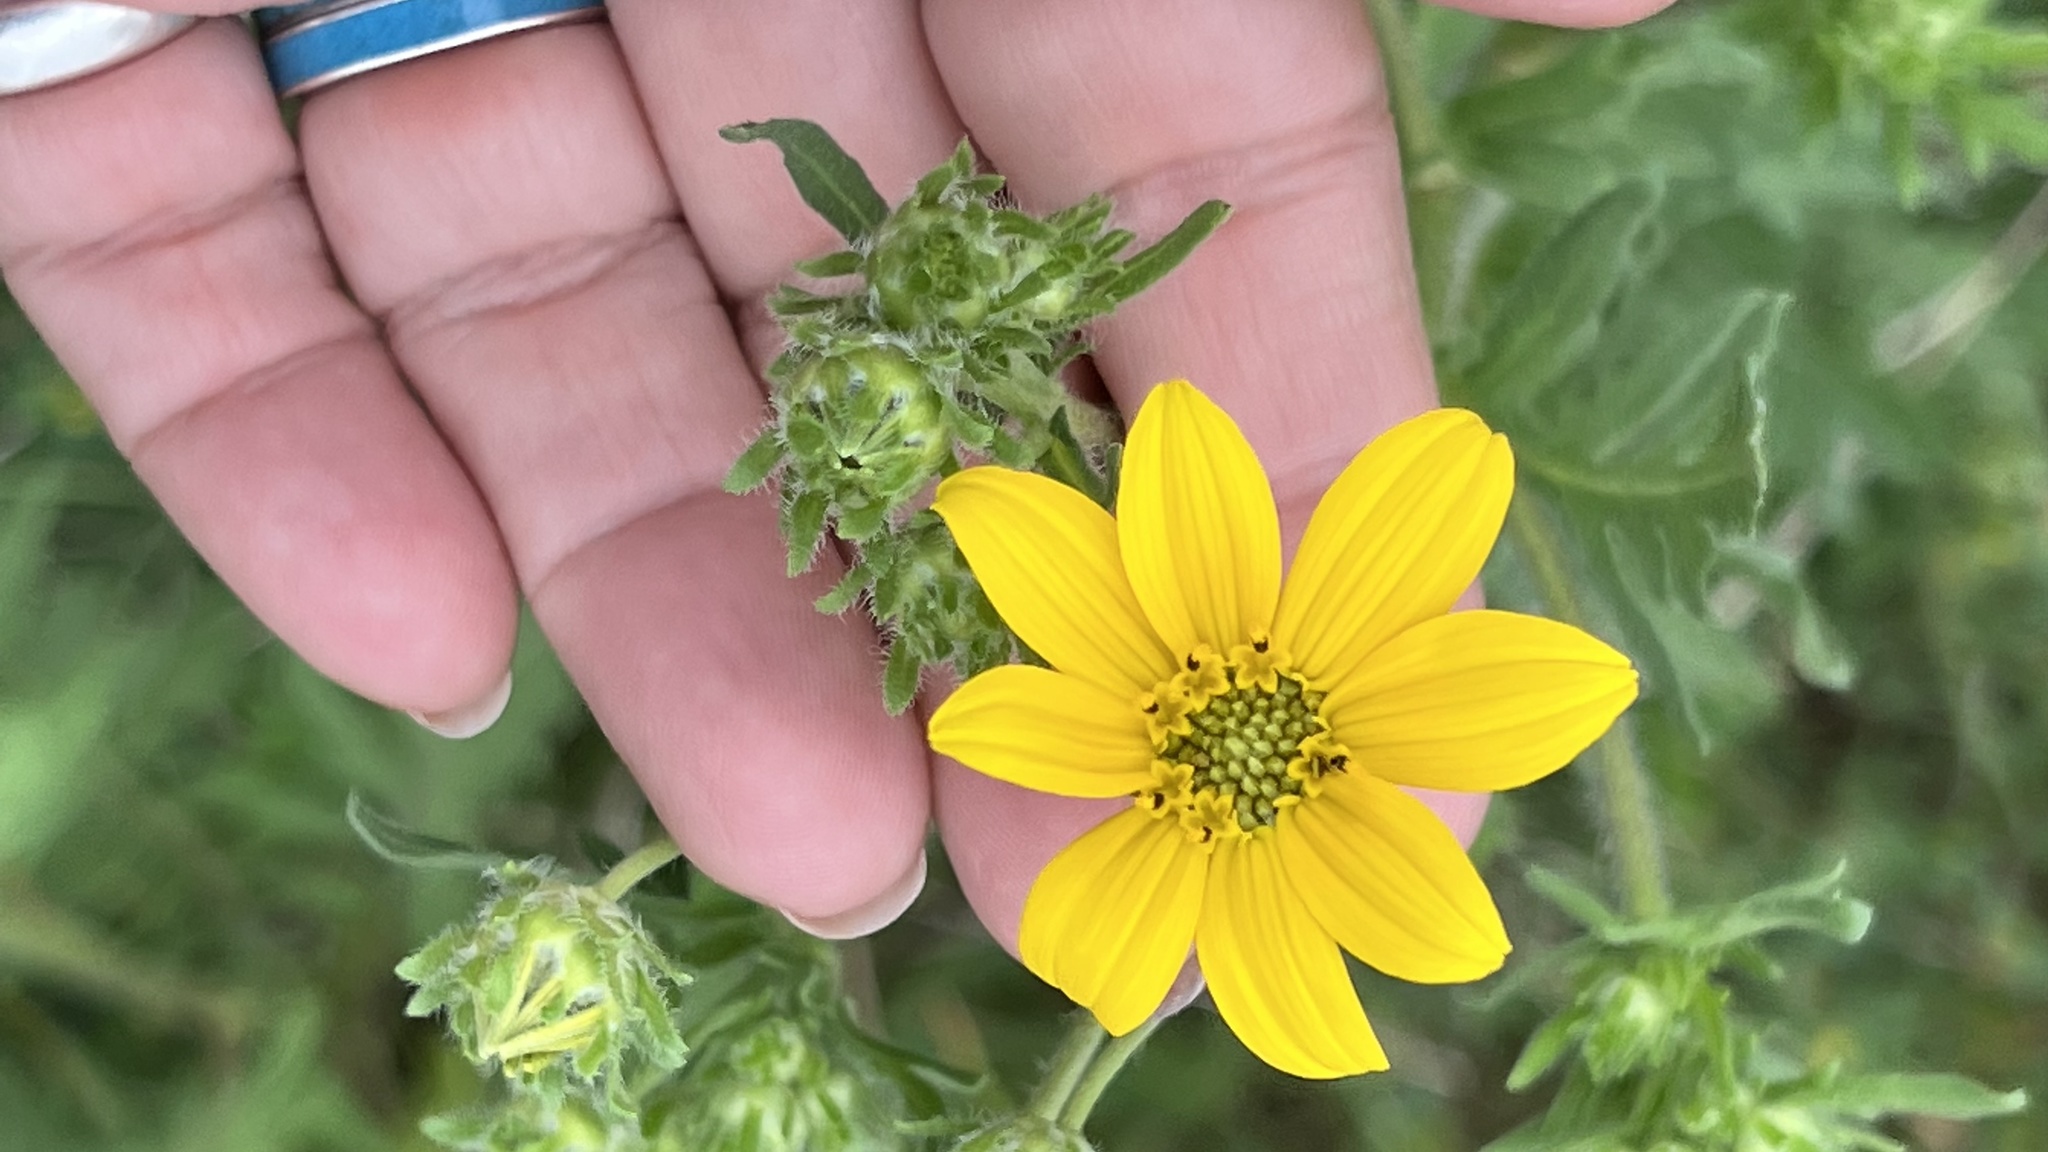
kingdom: Plantae
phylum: Tracheophyta
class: Magnoliopsida
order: Asterales
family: Asteraceae
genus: Engelmannia
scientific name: Engelmannia peristenia
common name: Engelmann's daisy
